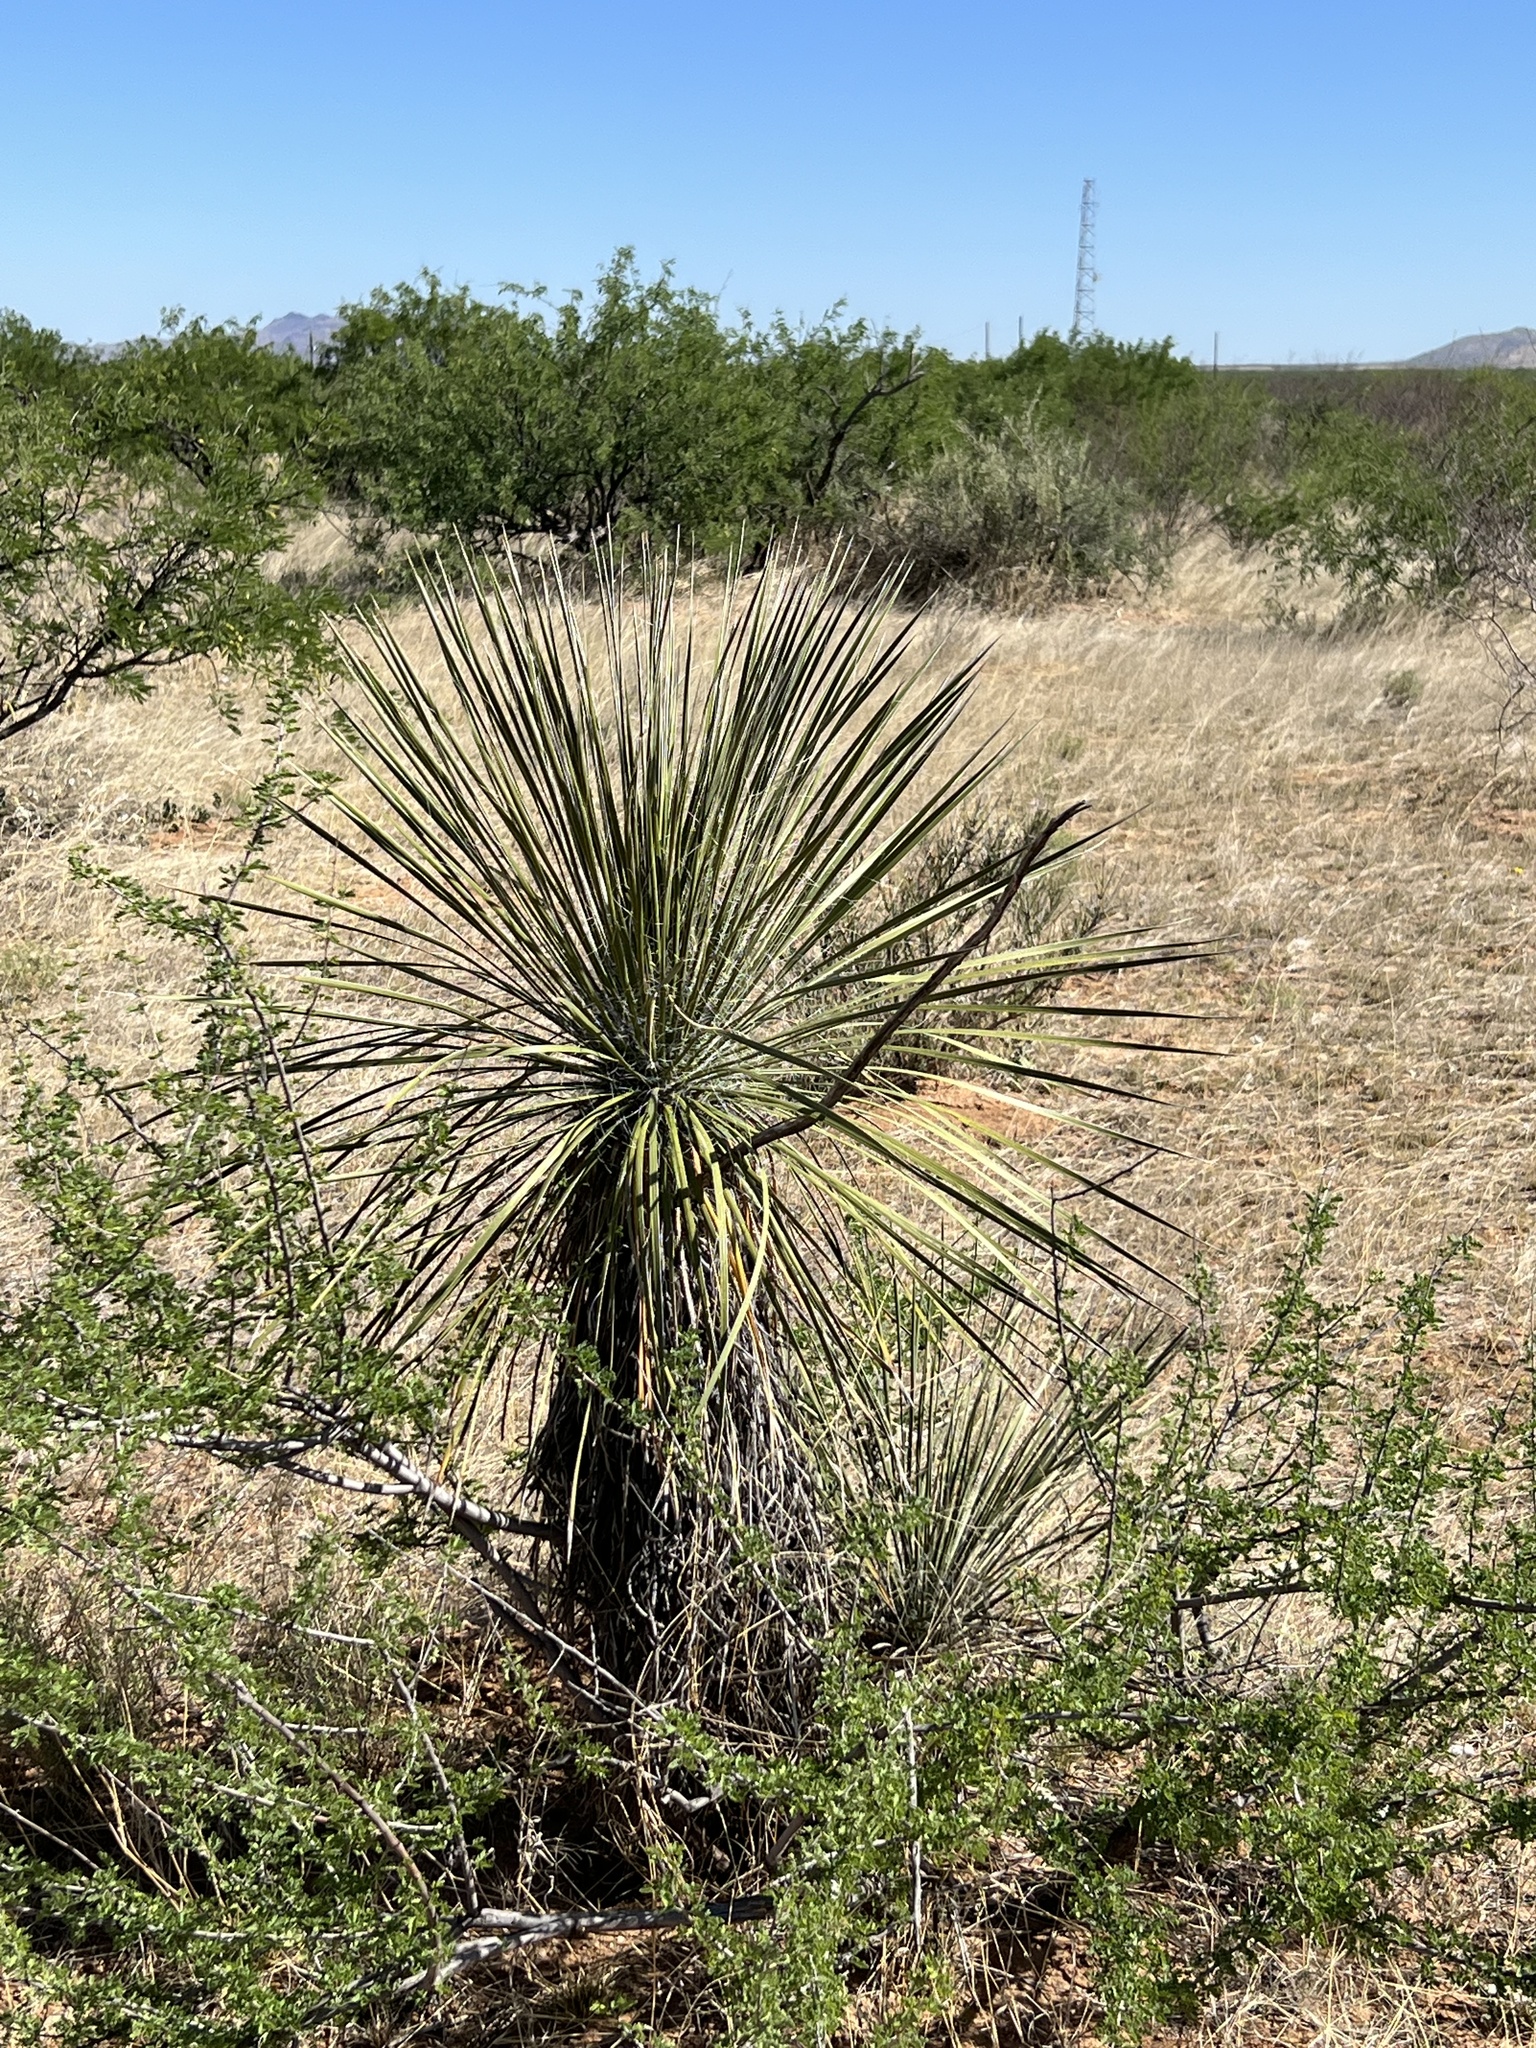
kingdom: Plantae
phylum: Tracheophyta
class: Liliopsida
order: Asparagales
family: Asparagaceae
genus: Yucca
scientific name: Yucca elata
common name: Palmella
